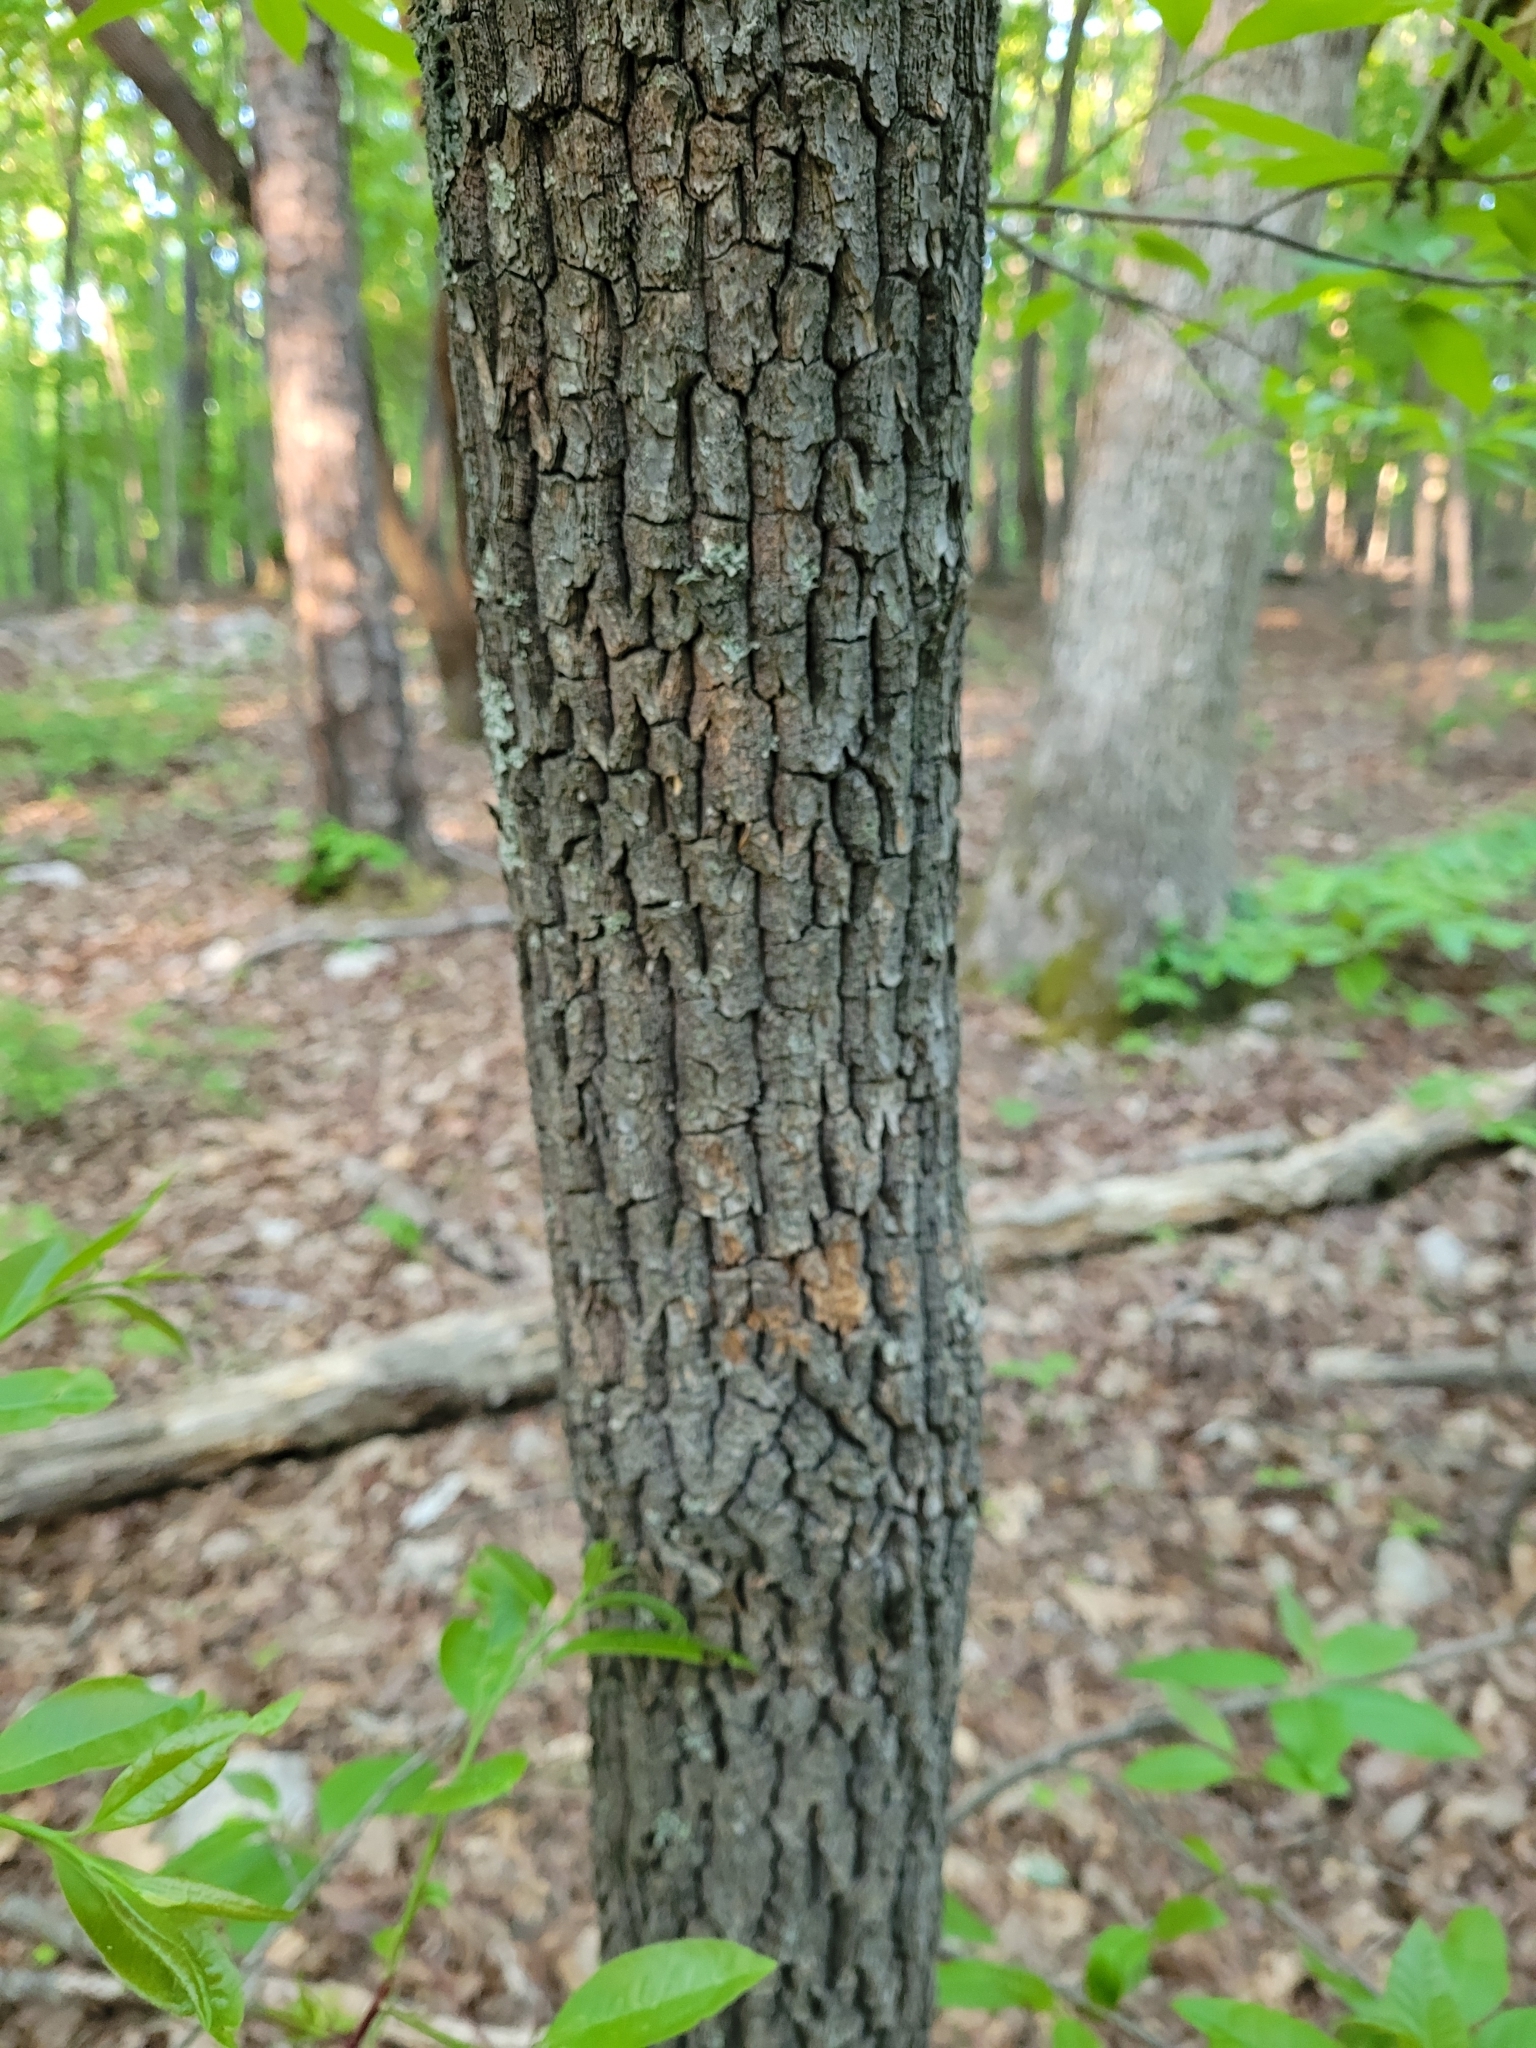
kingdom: Plantae
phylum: Tracheophyta
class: Magnoliopsida
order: Ericales
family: Ericaceae
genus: Oxydendrum
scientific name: Oxydendrum arboreum
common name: Sourwood
